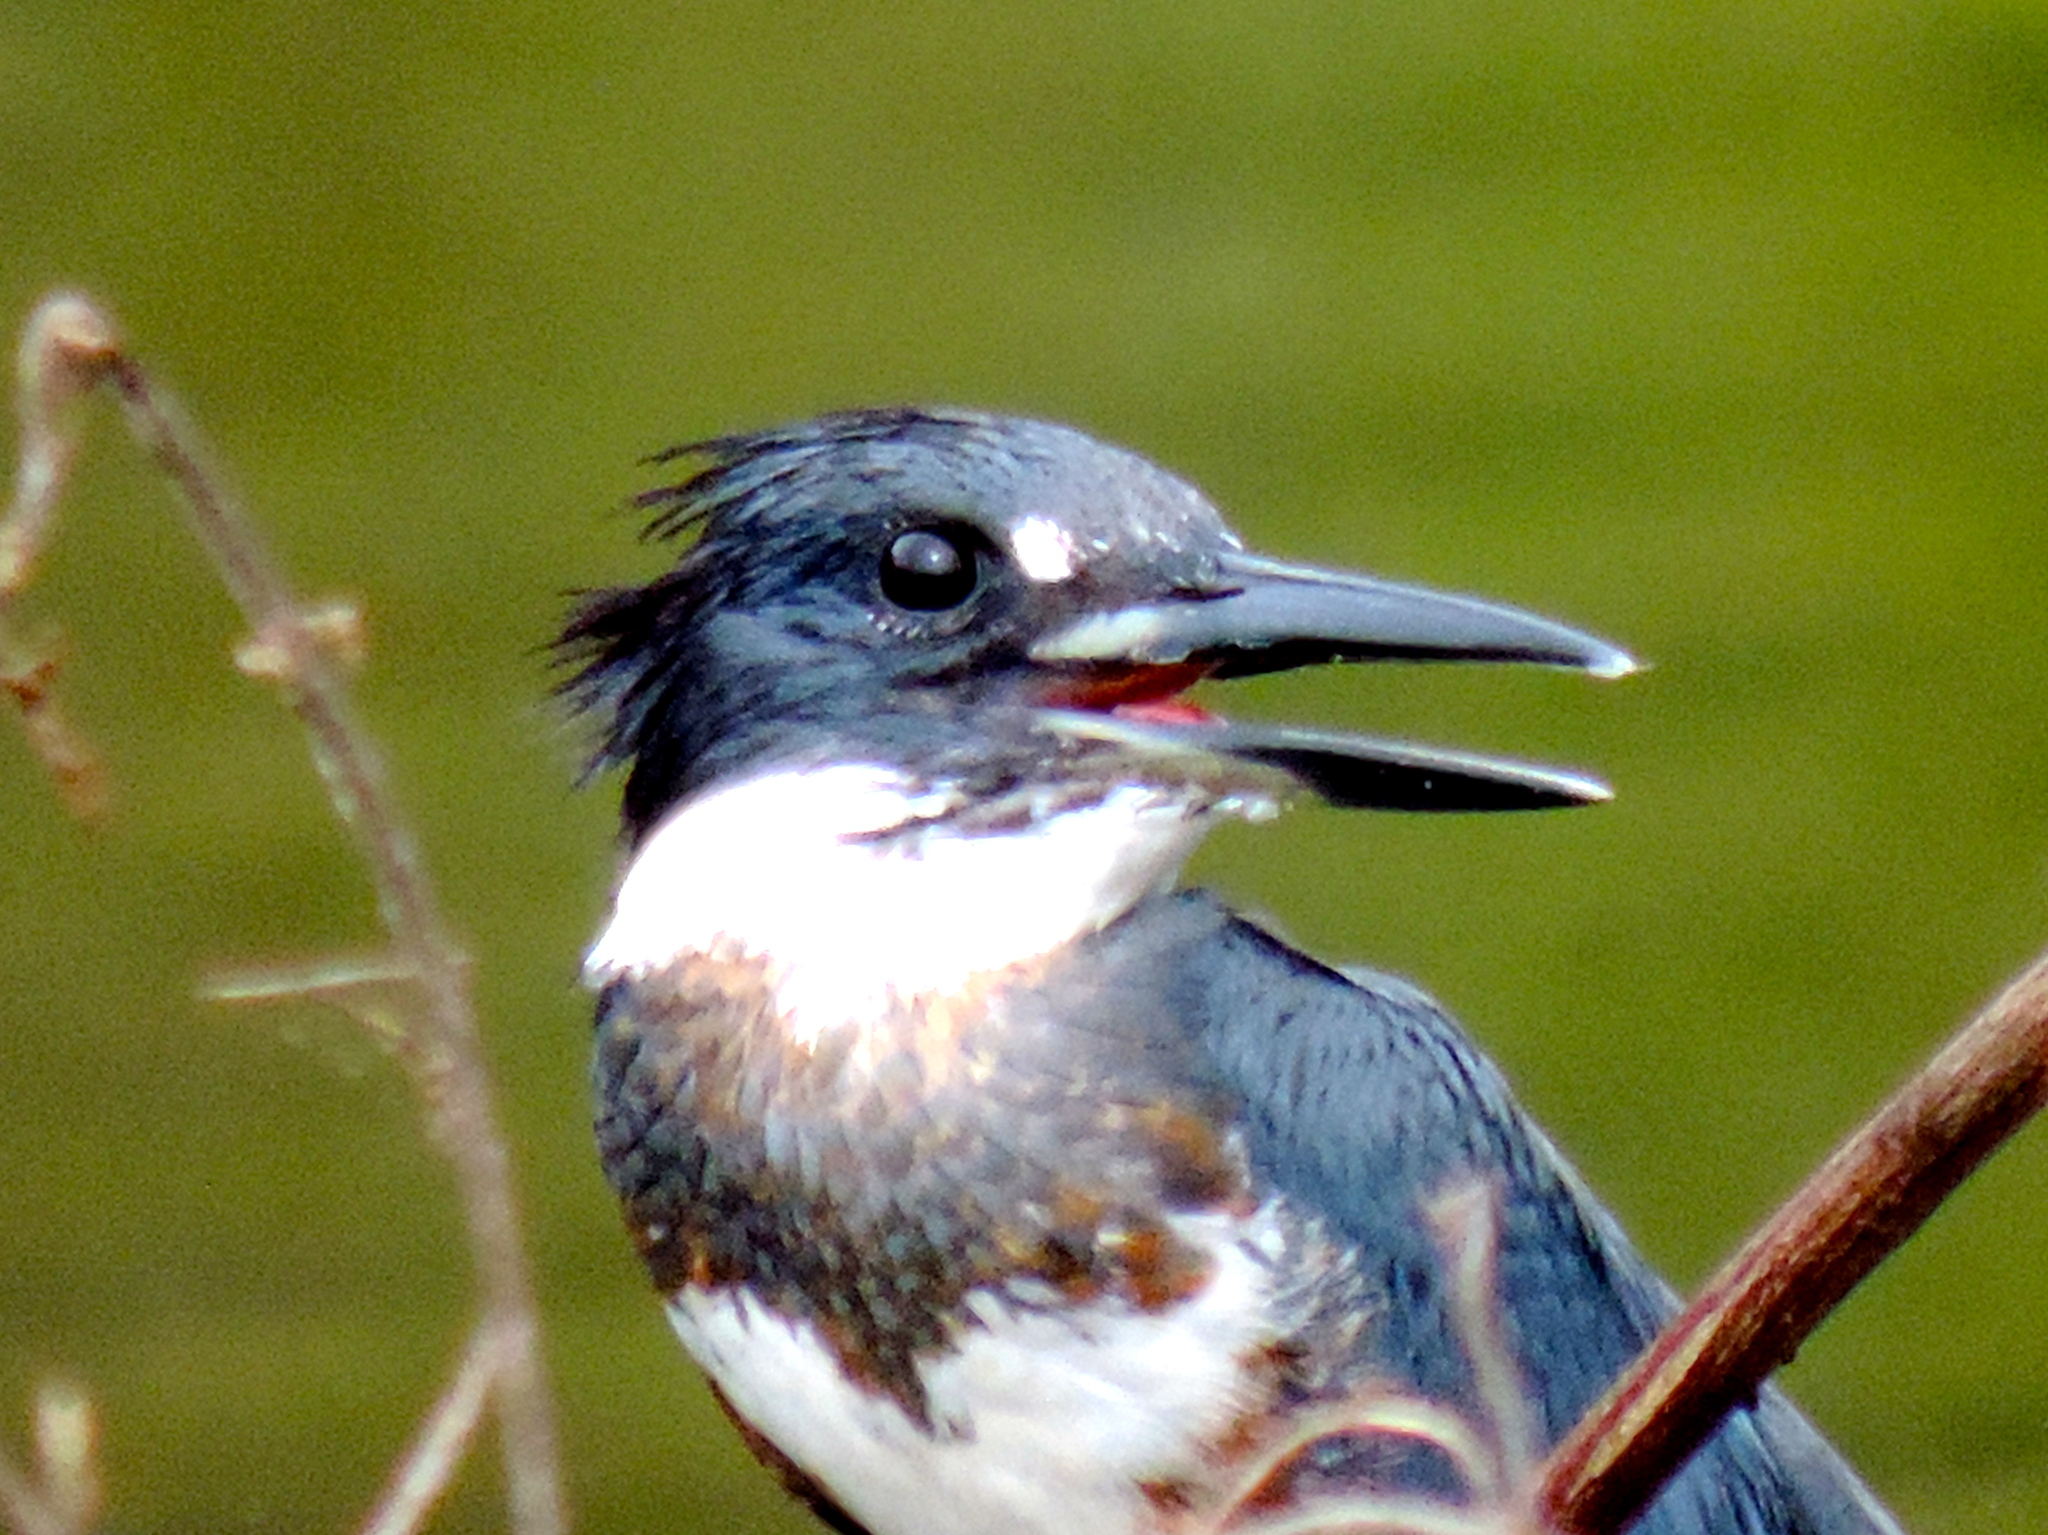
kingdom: Animalia
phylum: Chordata
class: Aves
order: Coraciiformes
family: Alcedinidae
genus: Megaceryle
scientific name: Megaceryle alcyon
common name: Belted kingfisher
